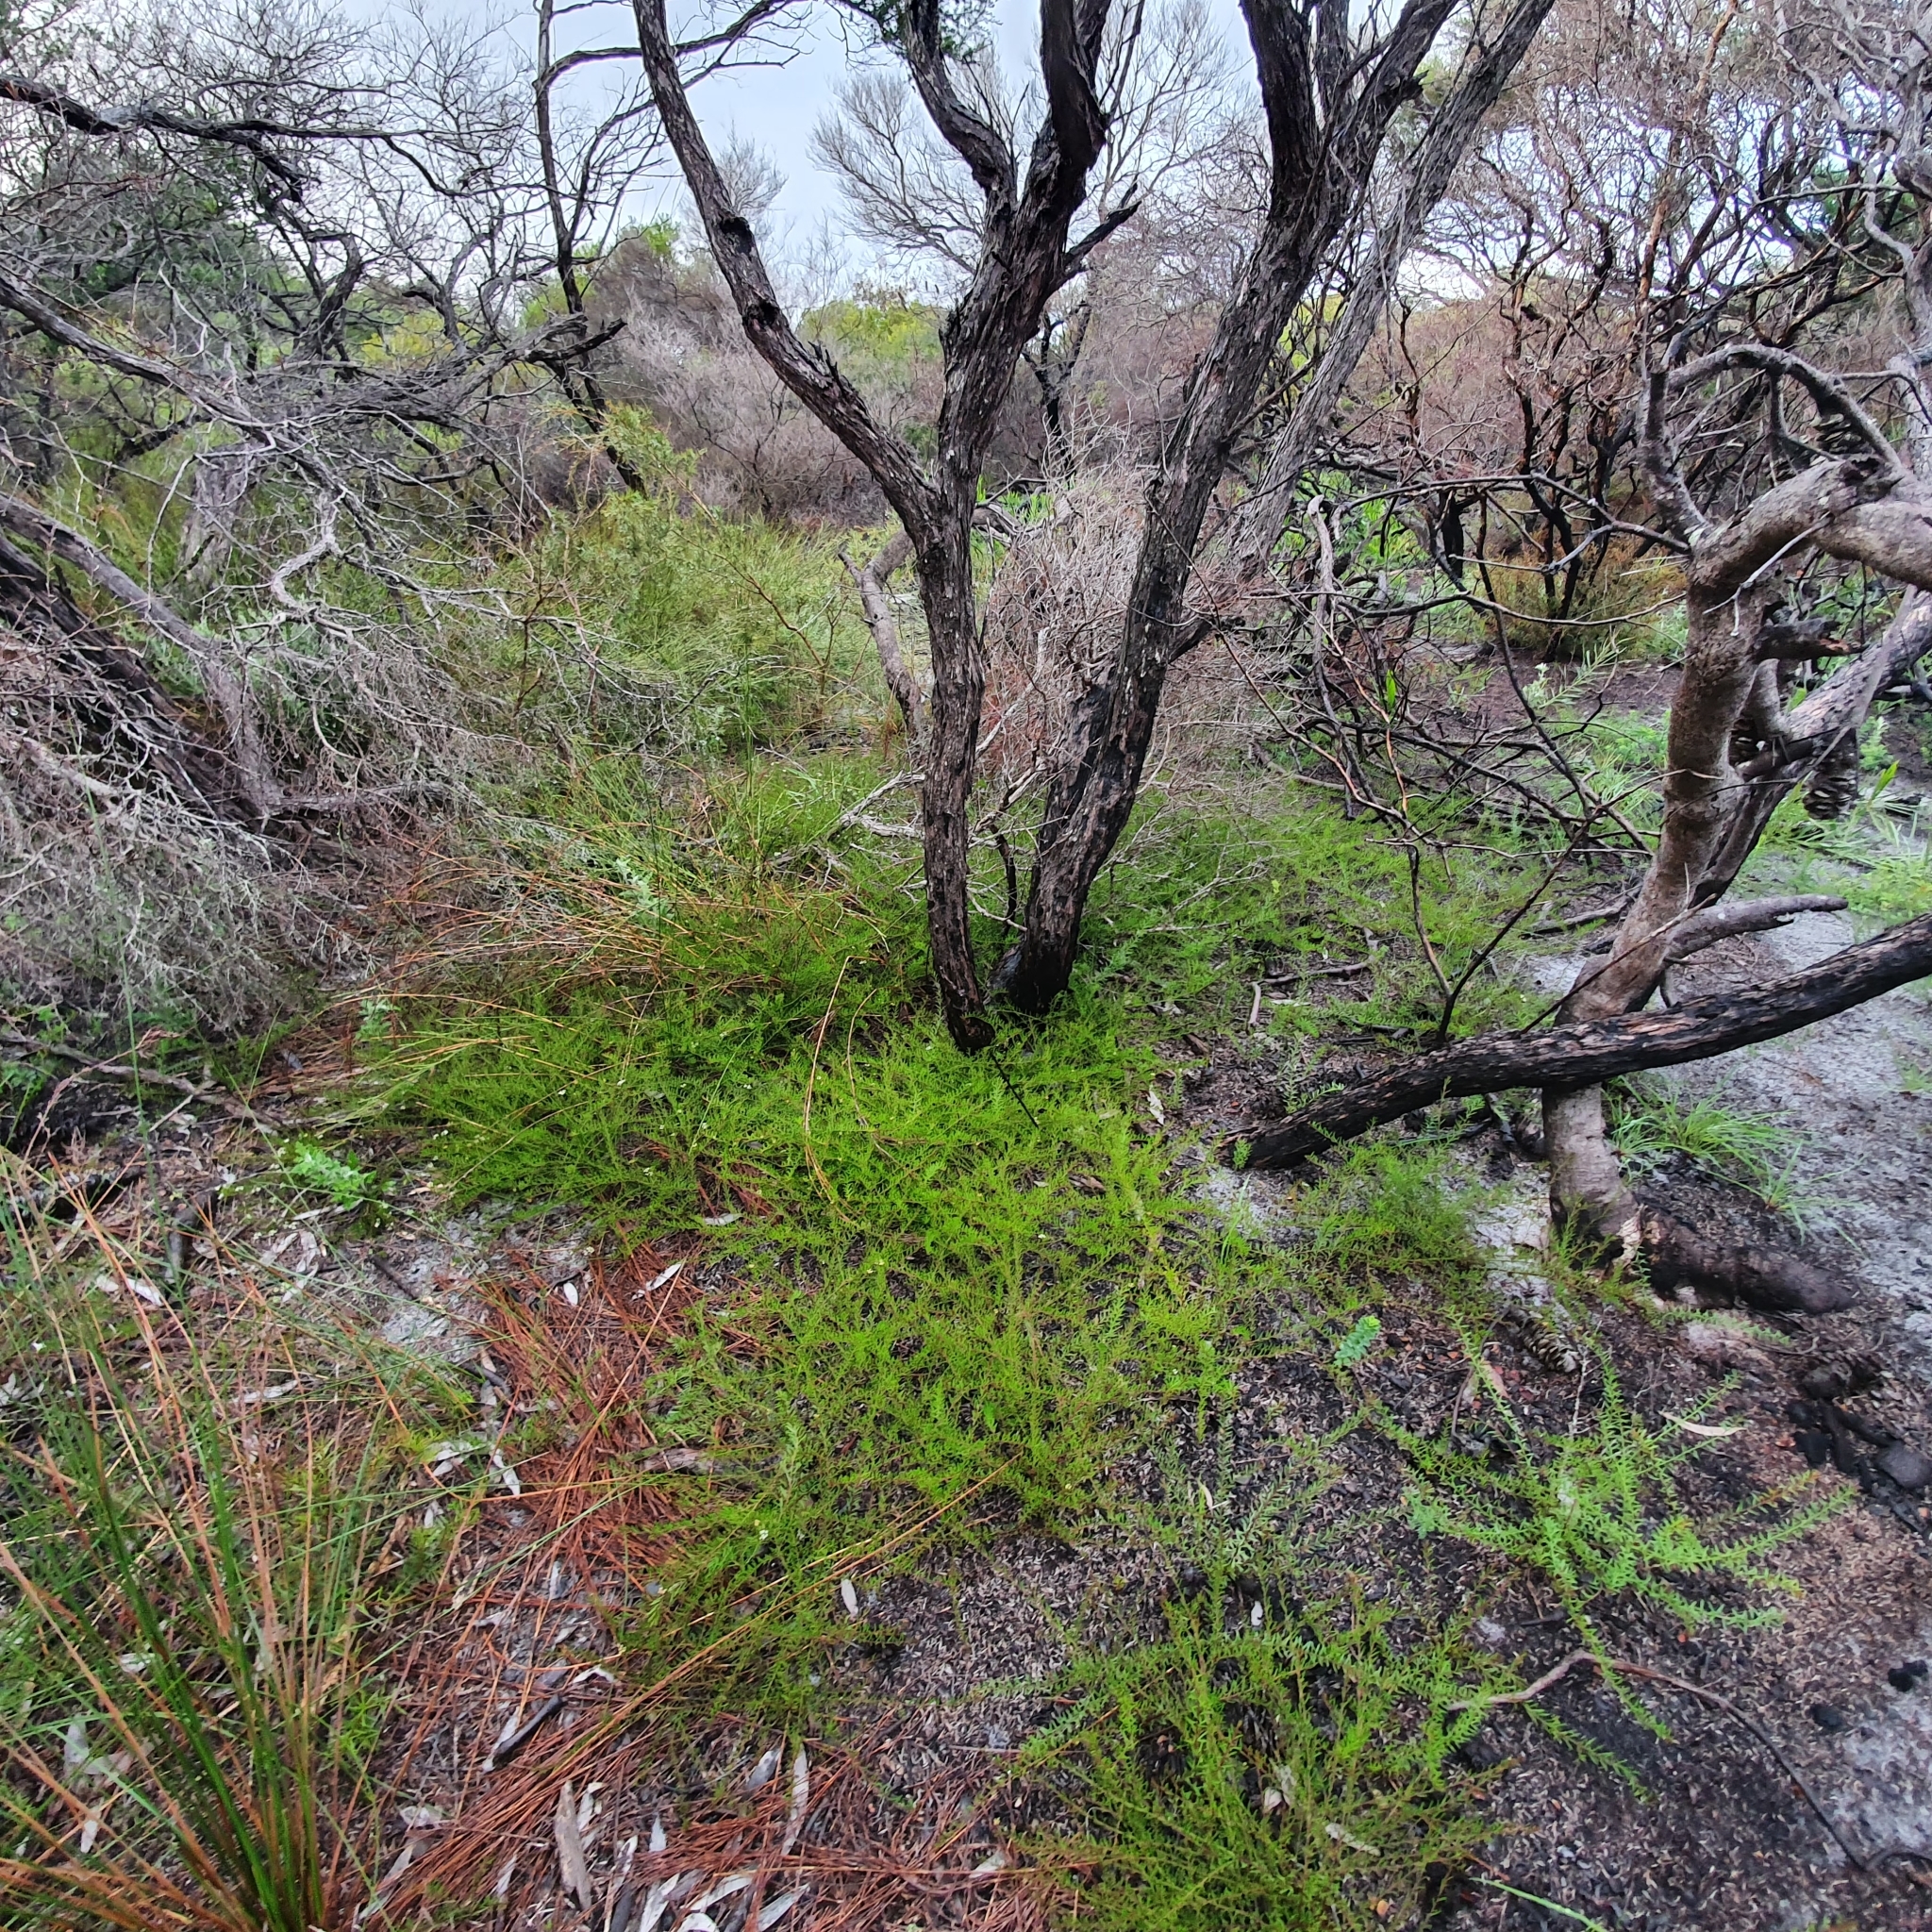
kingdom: Plantae
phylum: Tracheophyta
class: Magnoliopsida
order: Apiales
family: Apiaceae
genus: Platysace
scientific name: Platysace ericoides
